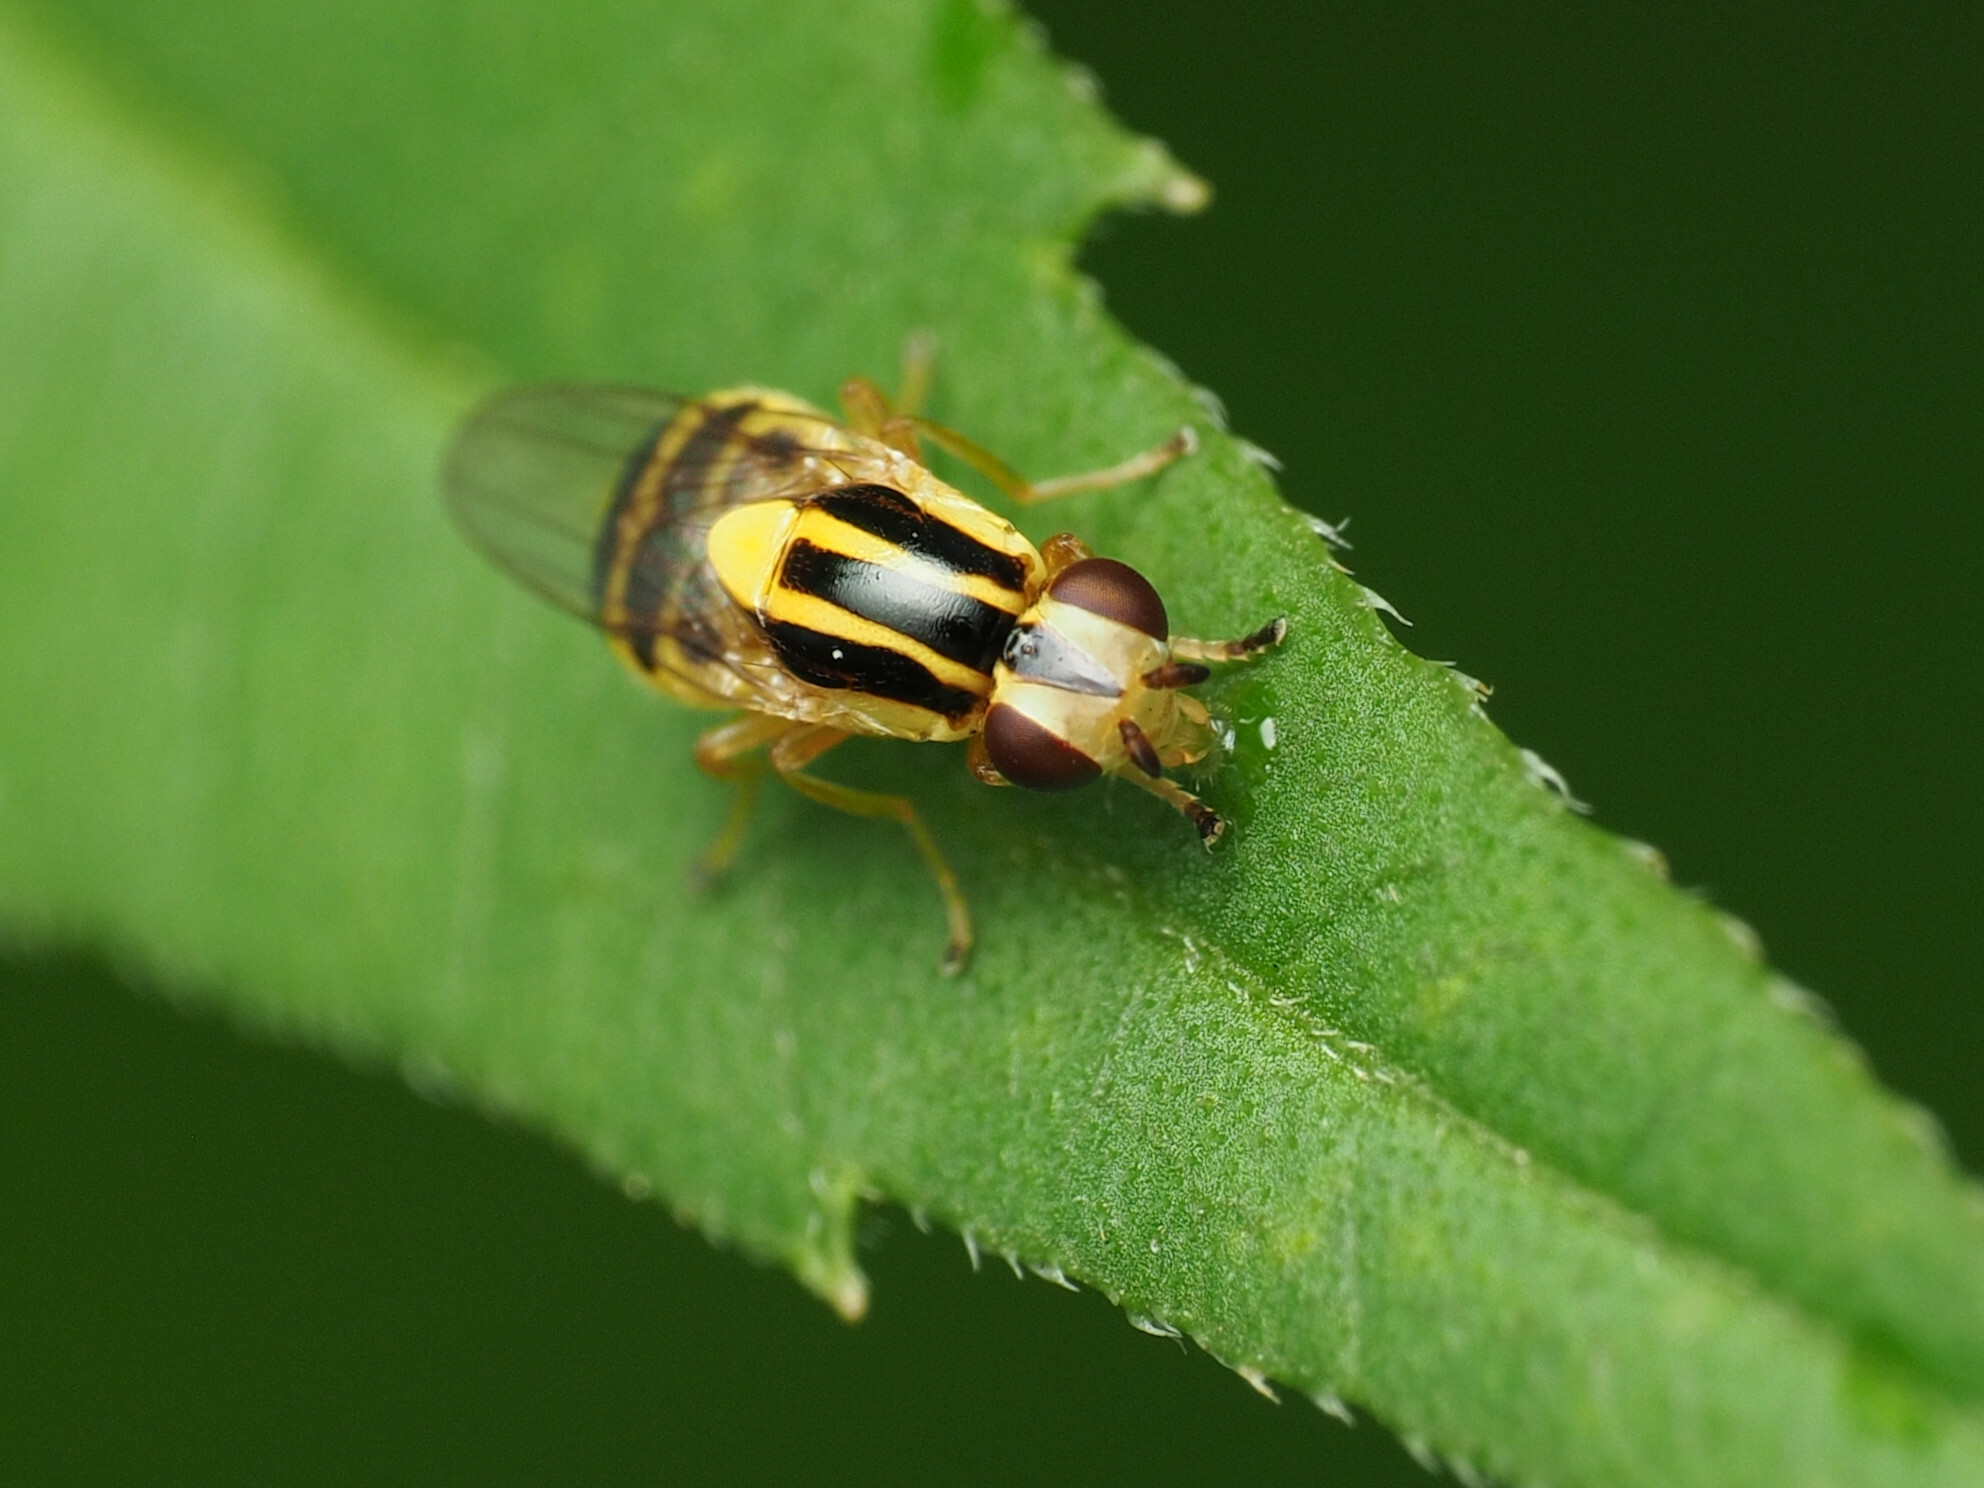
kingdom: Animalia
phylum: Arthropoda
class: Insecta
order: Diptera
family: Chloropidae
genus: Thaumatomyia
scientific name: Thaumatomyia glabra
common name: Chloropid fly
